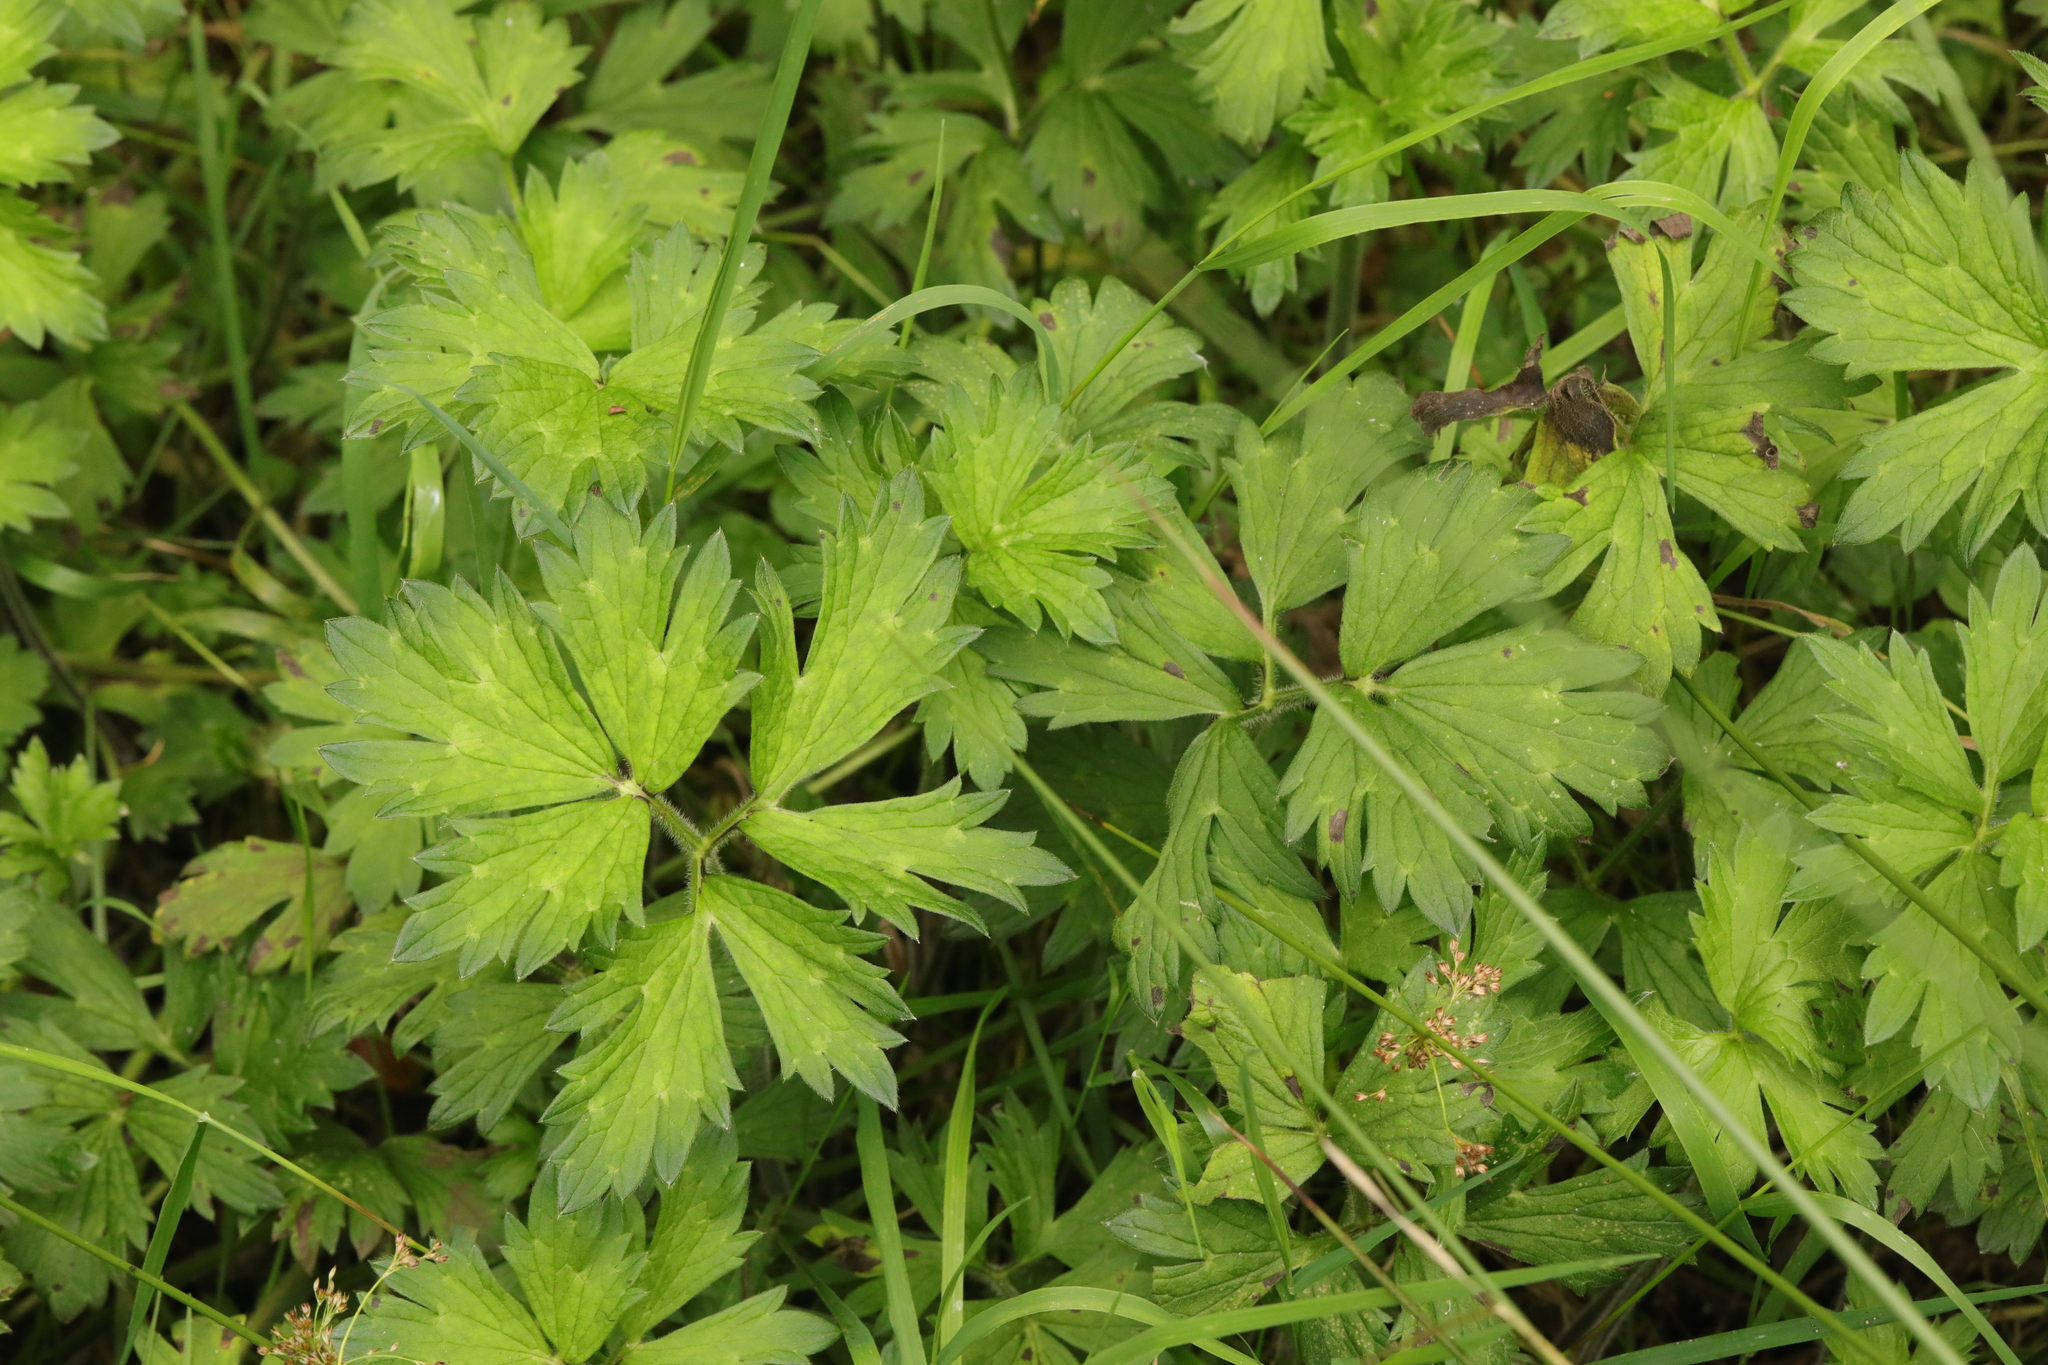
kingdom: Plantae
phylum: Tracheophyta
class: Magnoliopsida
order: Ranunculales
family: Ranunculaceae
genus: Ranunculus
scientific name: Ranunculus repens
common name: Creeping buttercup
